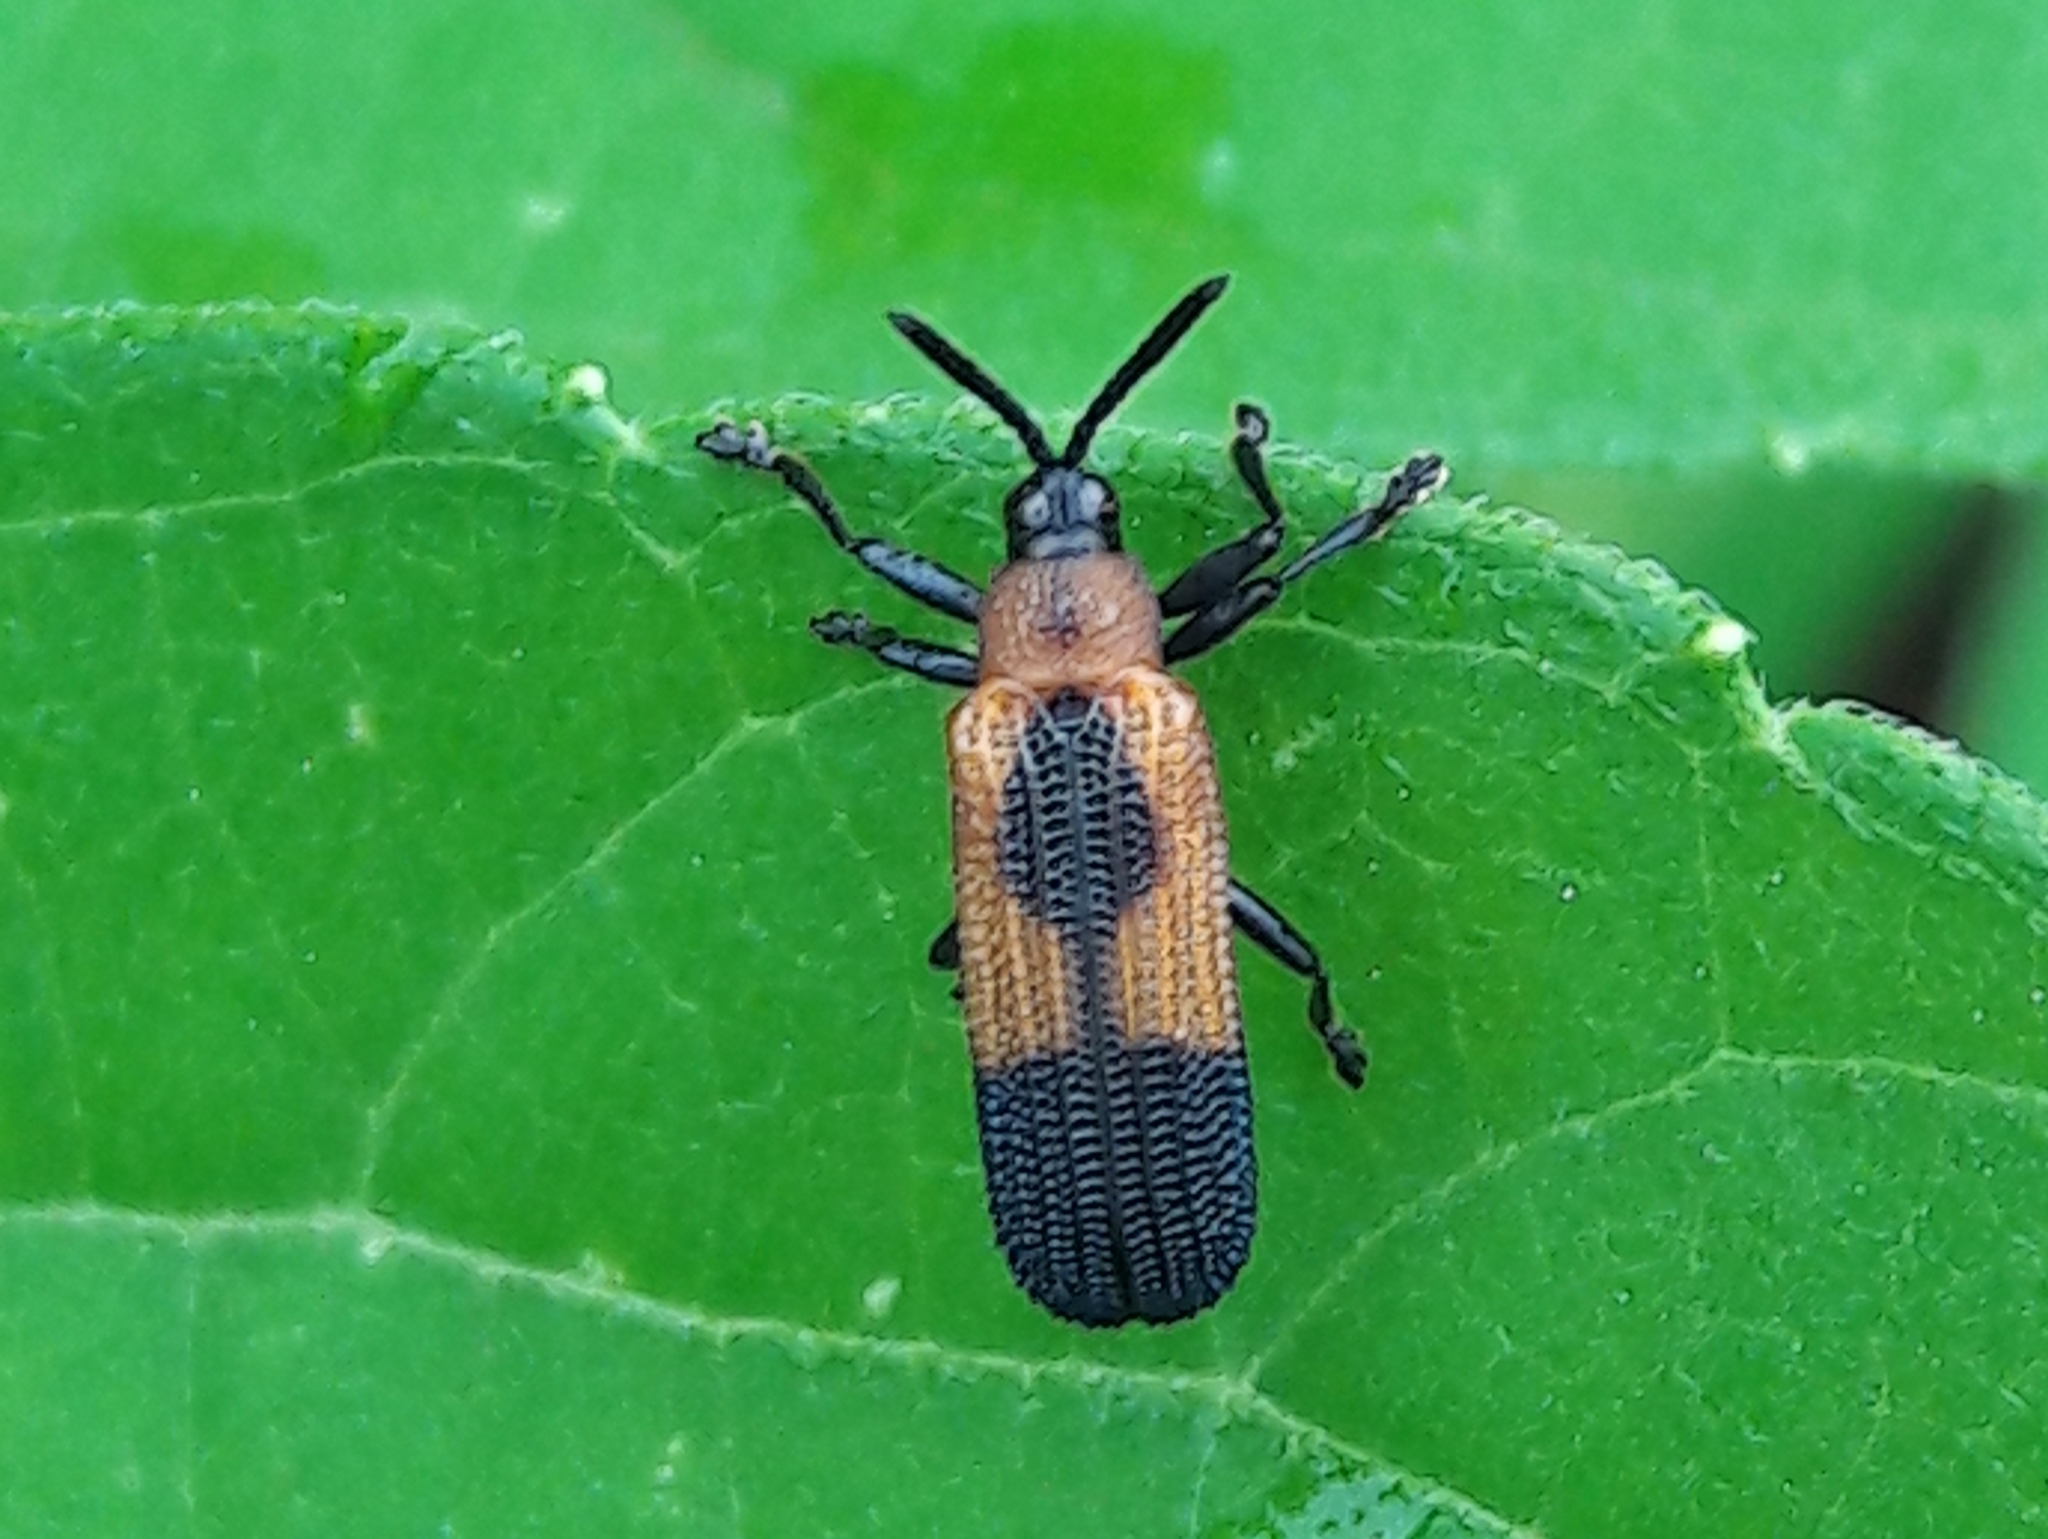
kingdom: Animalia
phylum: Arthropoda
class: Insecta
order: Coleoptera
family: Chrysomelidae
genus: Chalepus
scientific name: Chalepus putzeysi
